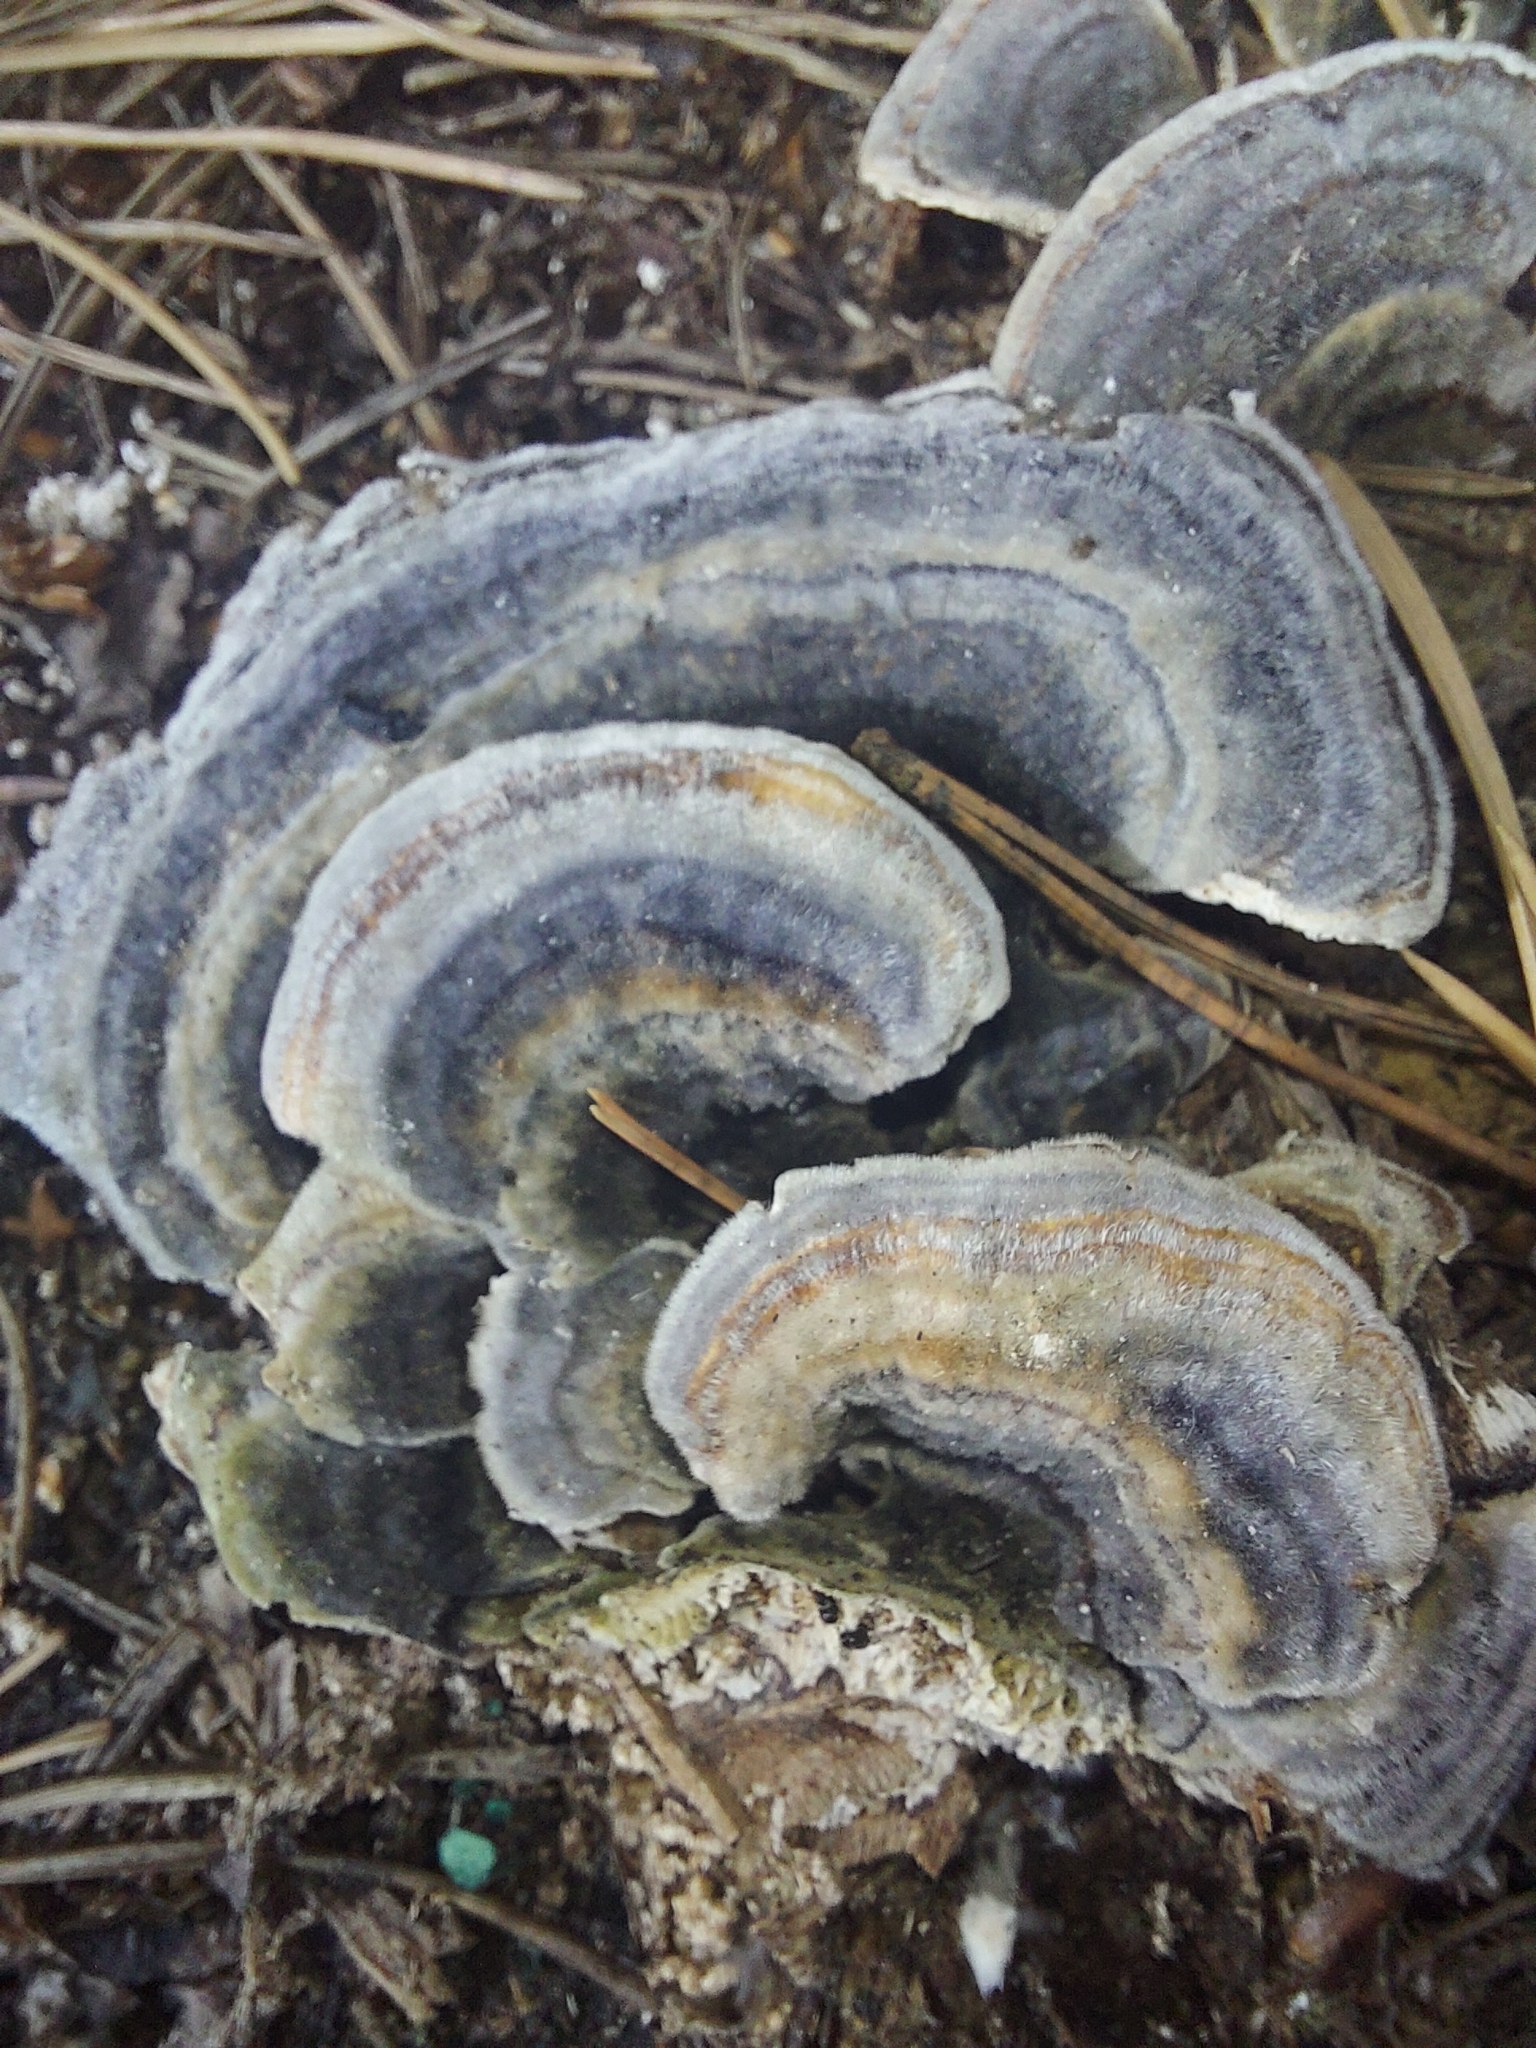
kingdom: Fungi
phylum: Basidiomycota
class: Agaricomycetes
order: Polyporales
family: Polyporaceae
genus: Trametes
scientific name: Trametes versicolor
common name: Turkeytail
